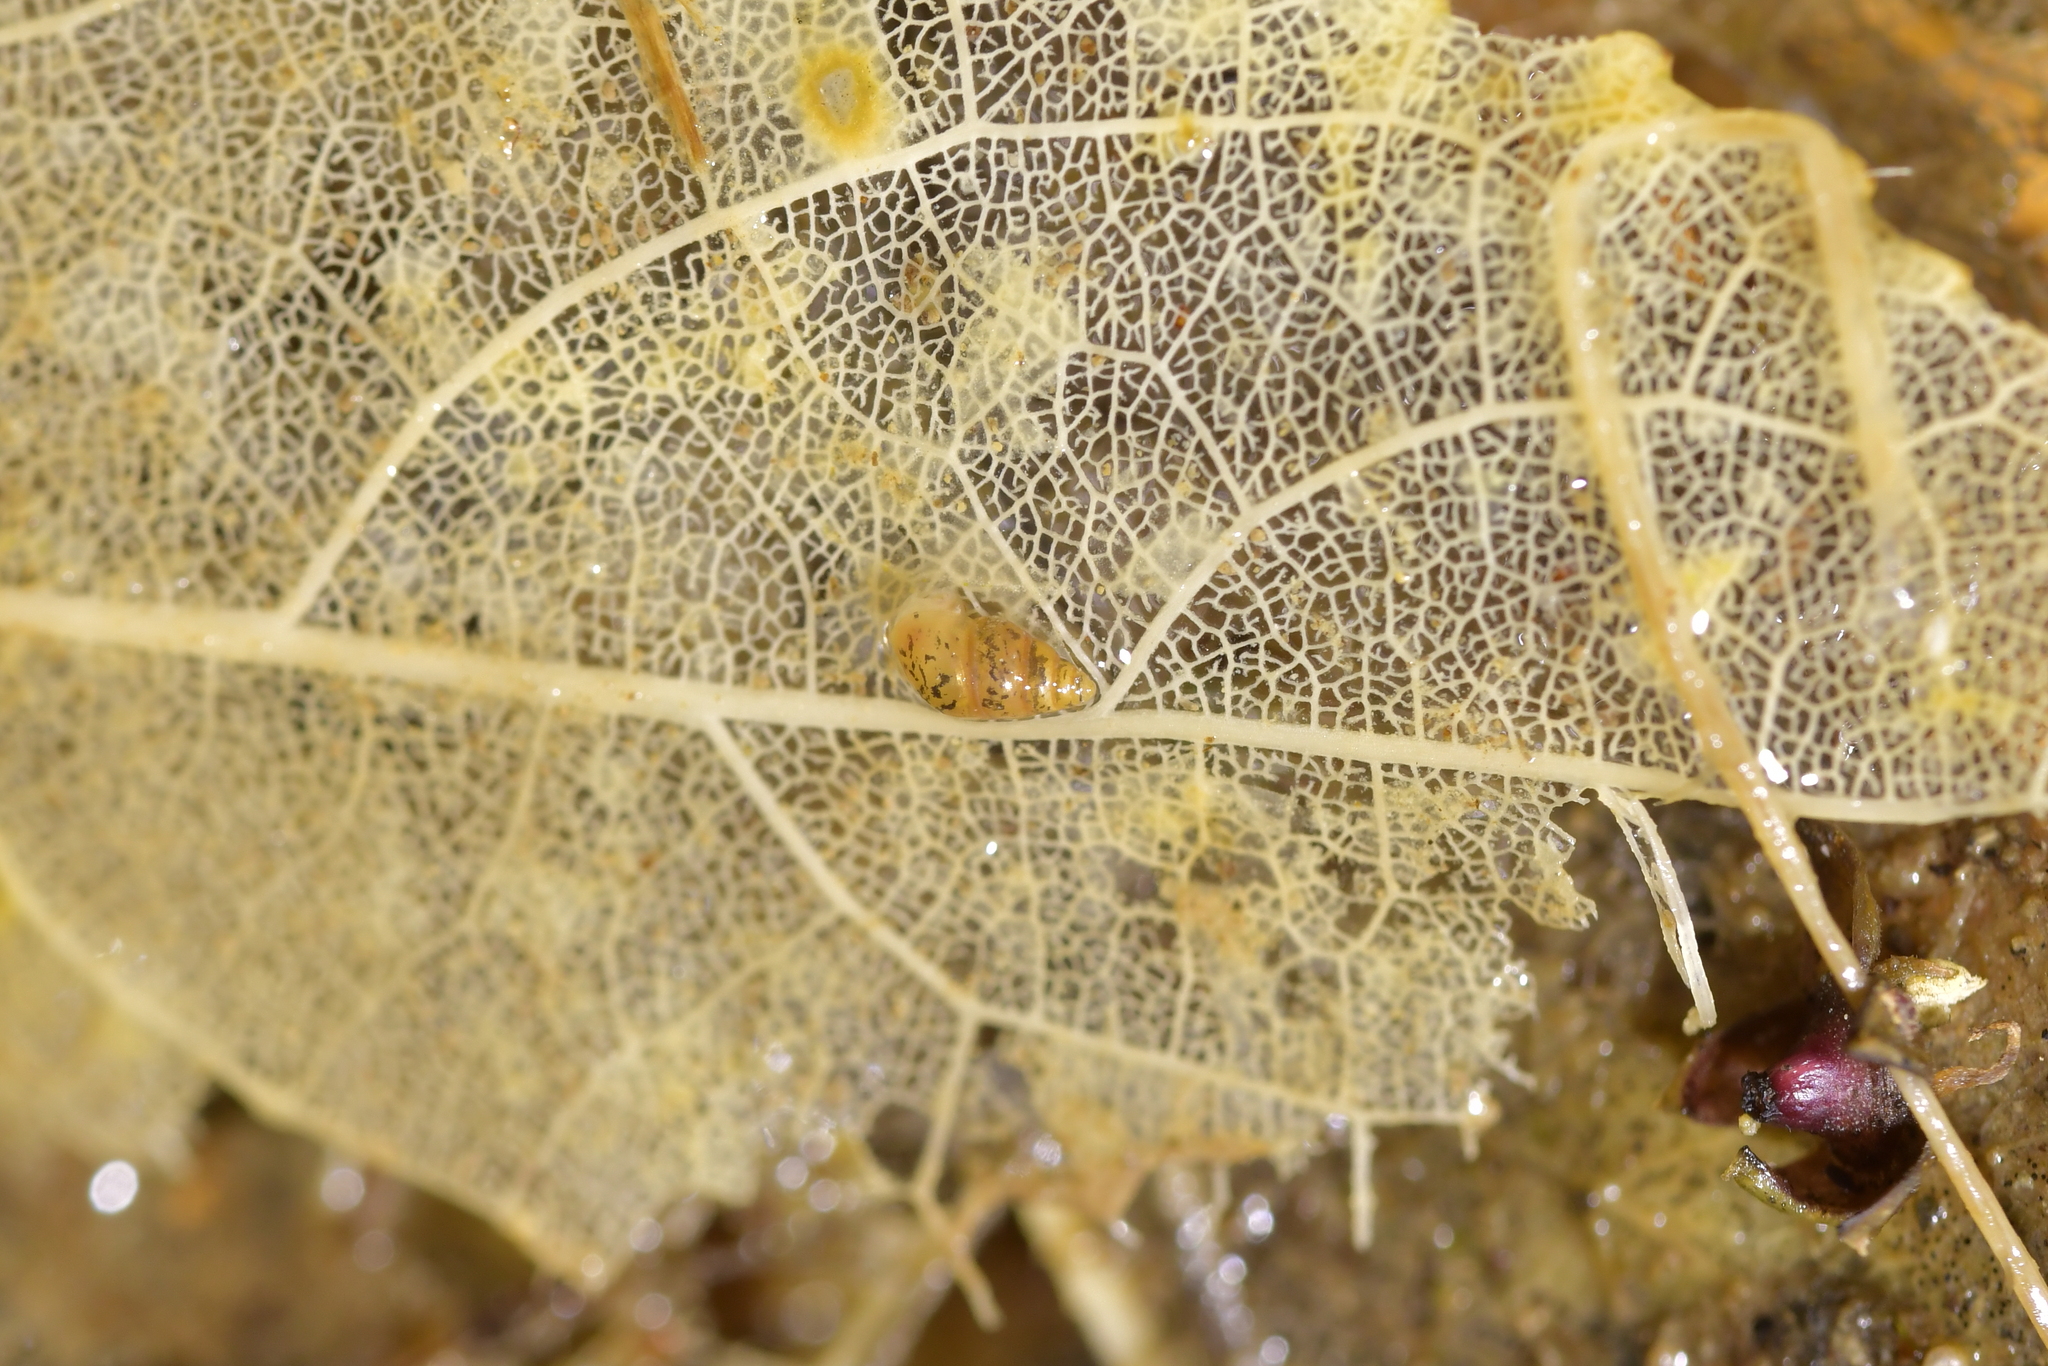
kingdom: Animalia
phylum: Mollusca
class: Gastropoda
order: Littorinimorpha
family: Tateidae
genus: Potamopyrgus
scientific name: Potamopyrgus antipodarum
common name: Jenkins' spire snail
